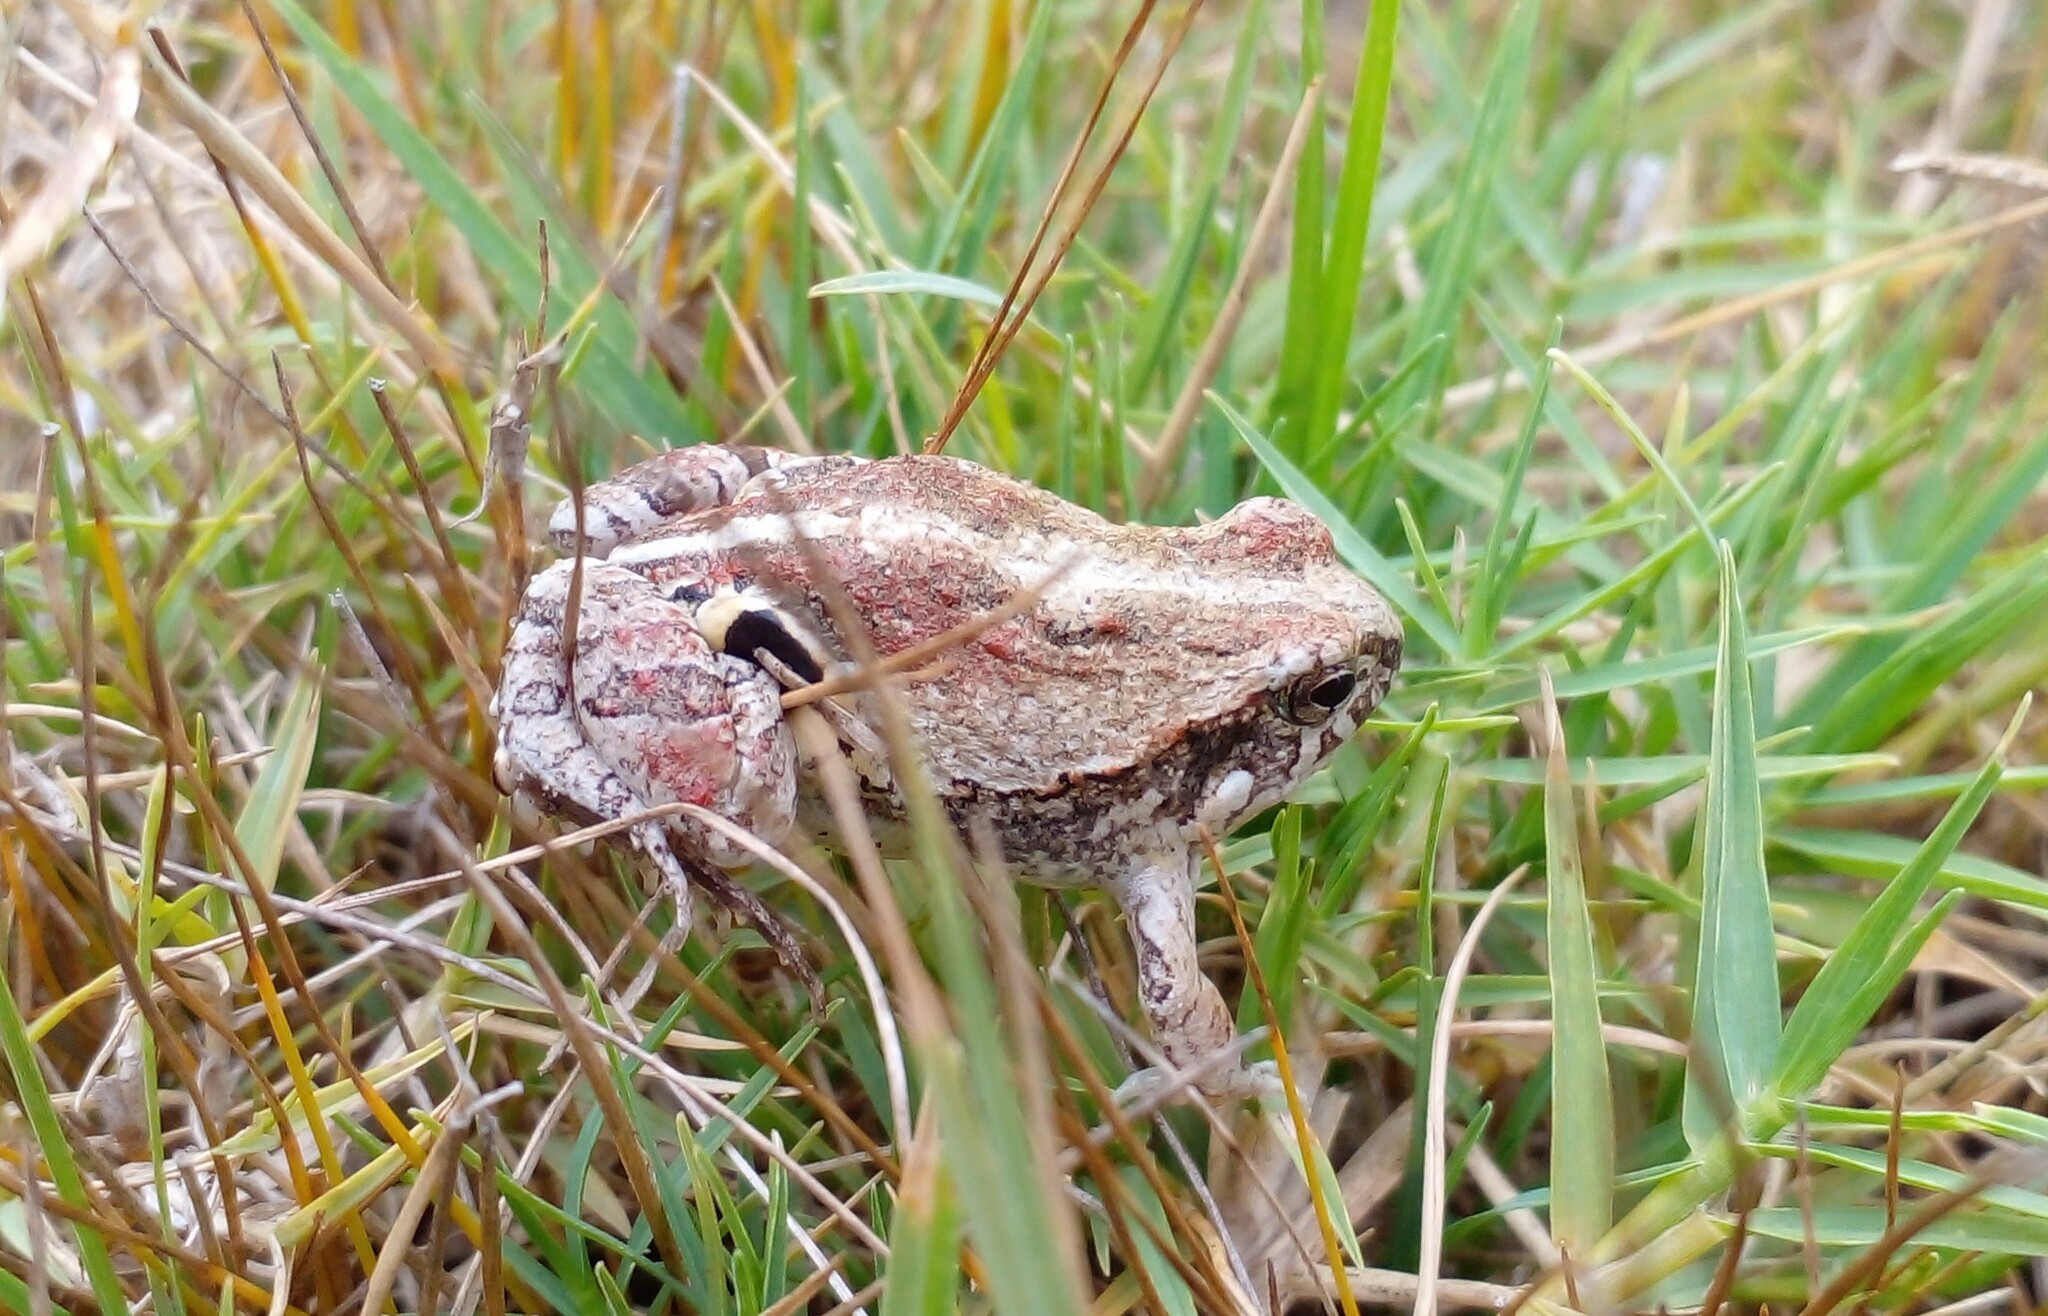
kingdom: Animalia
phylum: Chordata
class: Amphibia
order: Anura
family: Leptodactylidae
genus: Physalaemus
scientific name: Physalaemus biligonigerus
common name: Weeping frog
